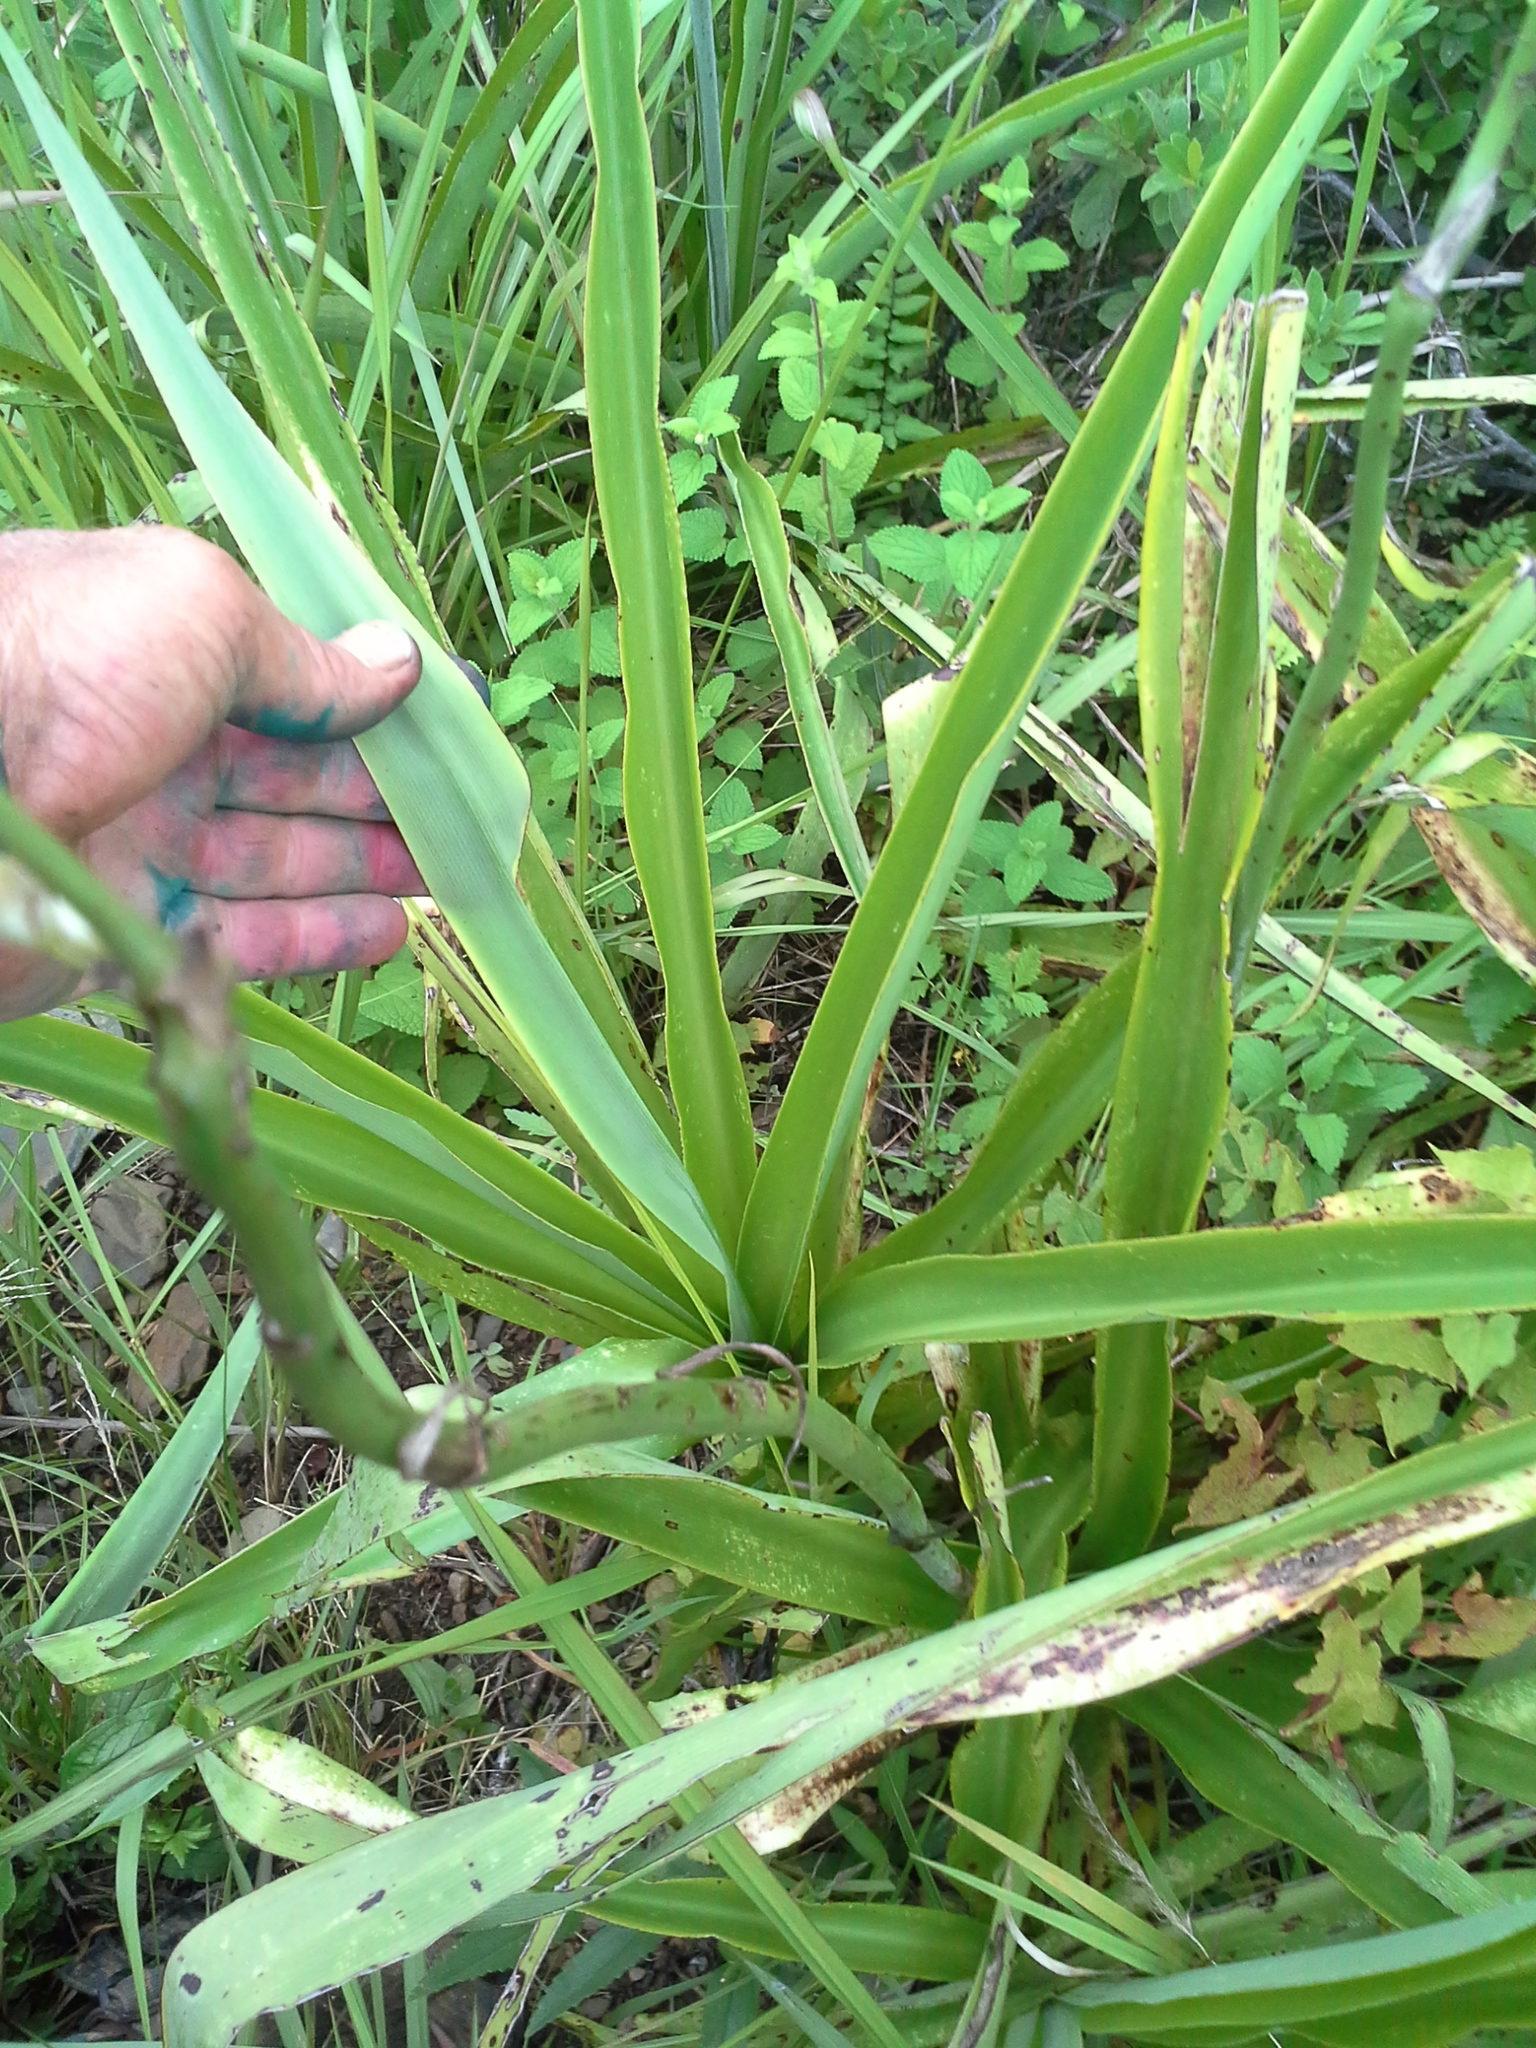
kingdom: Plantae
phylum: Tracheophyta
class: Liliopsida
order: Asparagales
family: Asparagaceae
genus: Chlorophytum
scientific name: Chlorophytum krookianum
